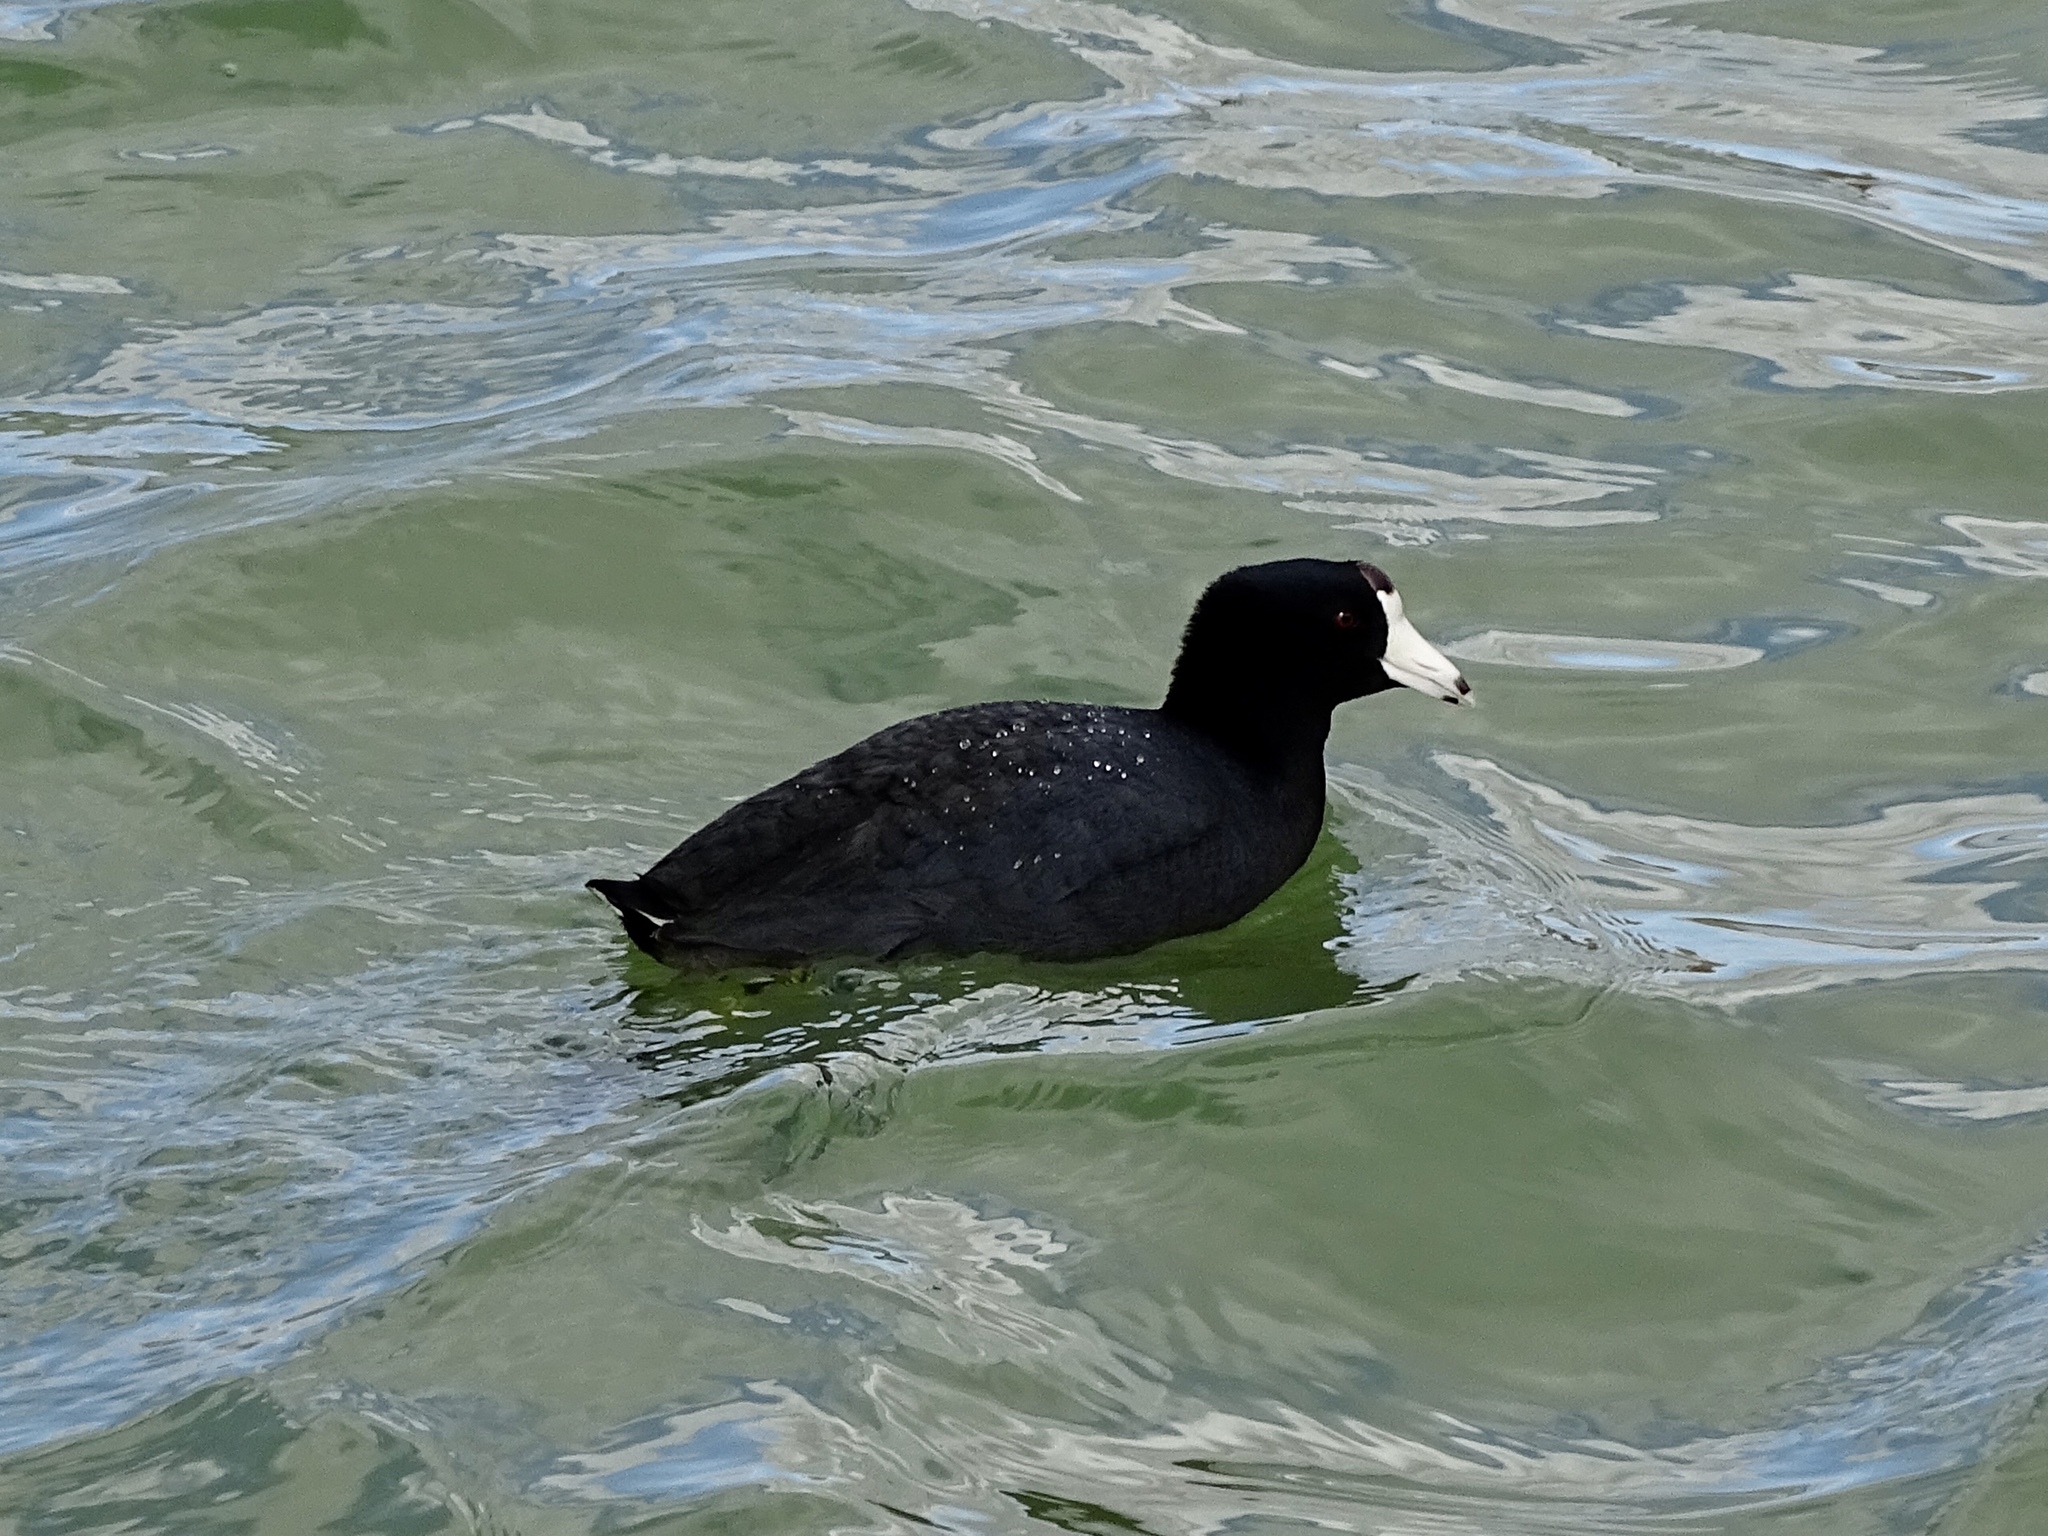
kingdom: Animalia
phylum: Chordata
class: Aves
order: Gruiformes
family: Rallidae
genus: Fulica
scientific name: Fulica americana
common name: American coot
